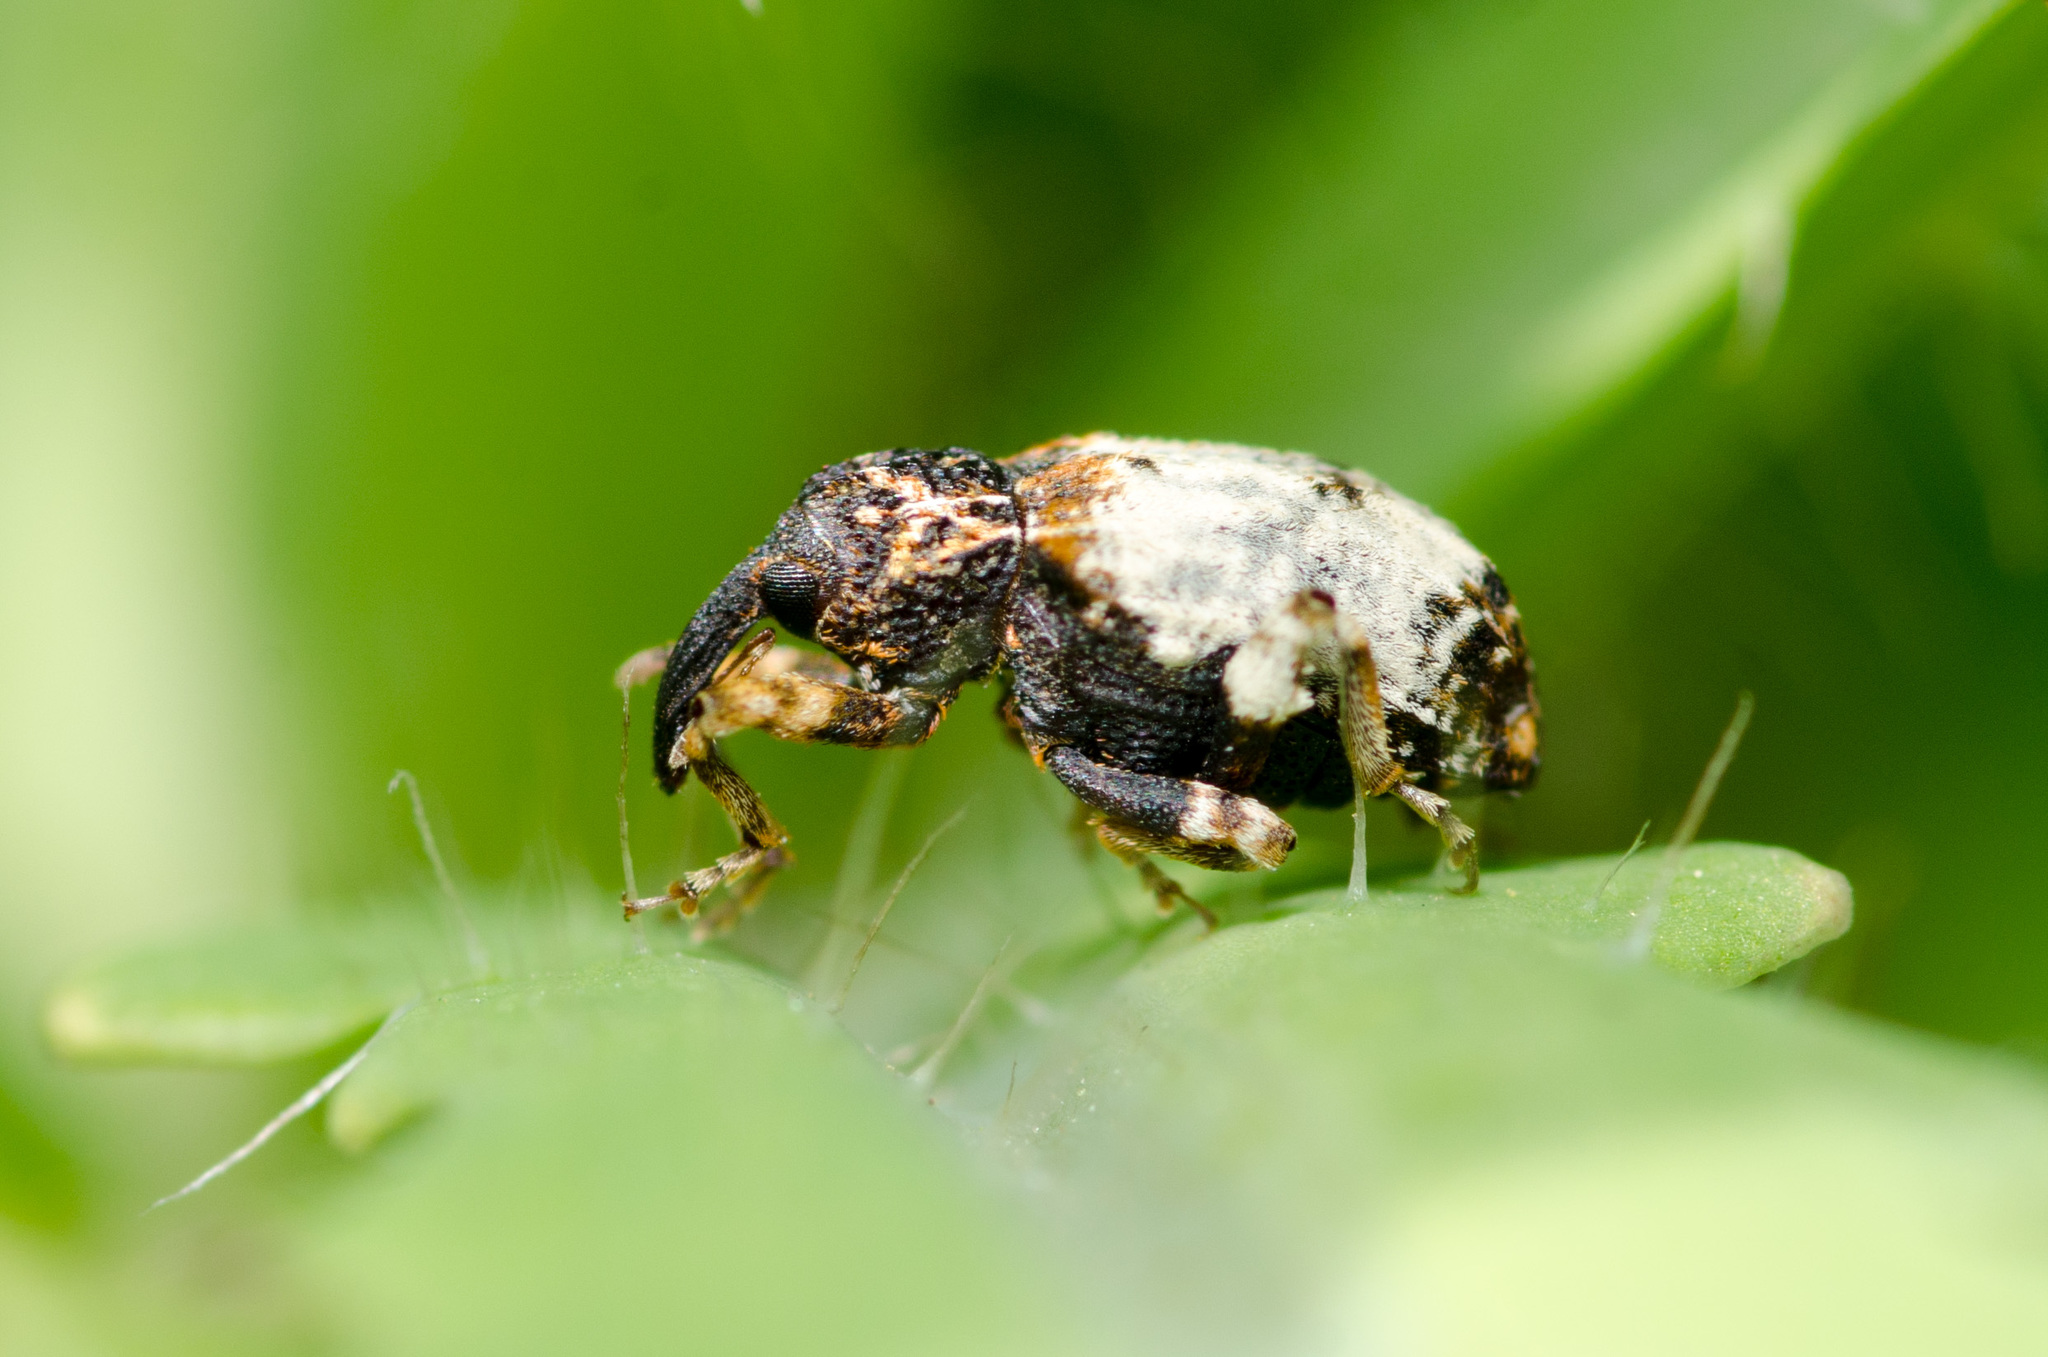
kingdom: Animalia
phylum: Arthropoda
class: Insecta
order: Coleoptera
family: Curculionidae
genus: Conotrachelus
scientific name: Conotrachelus leucophaeatus
